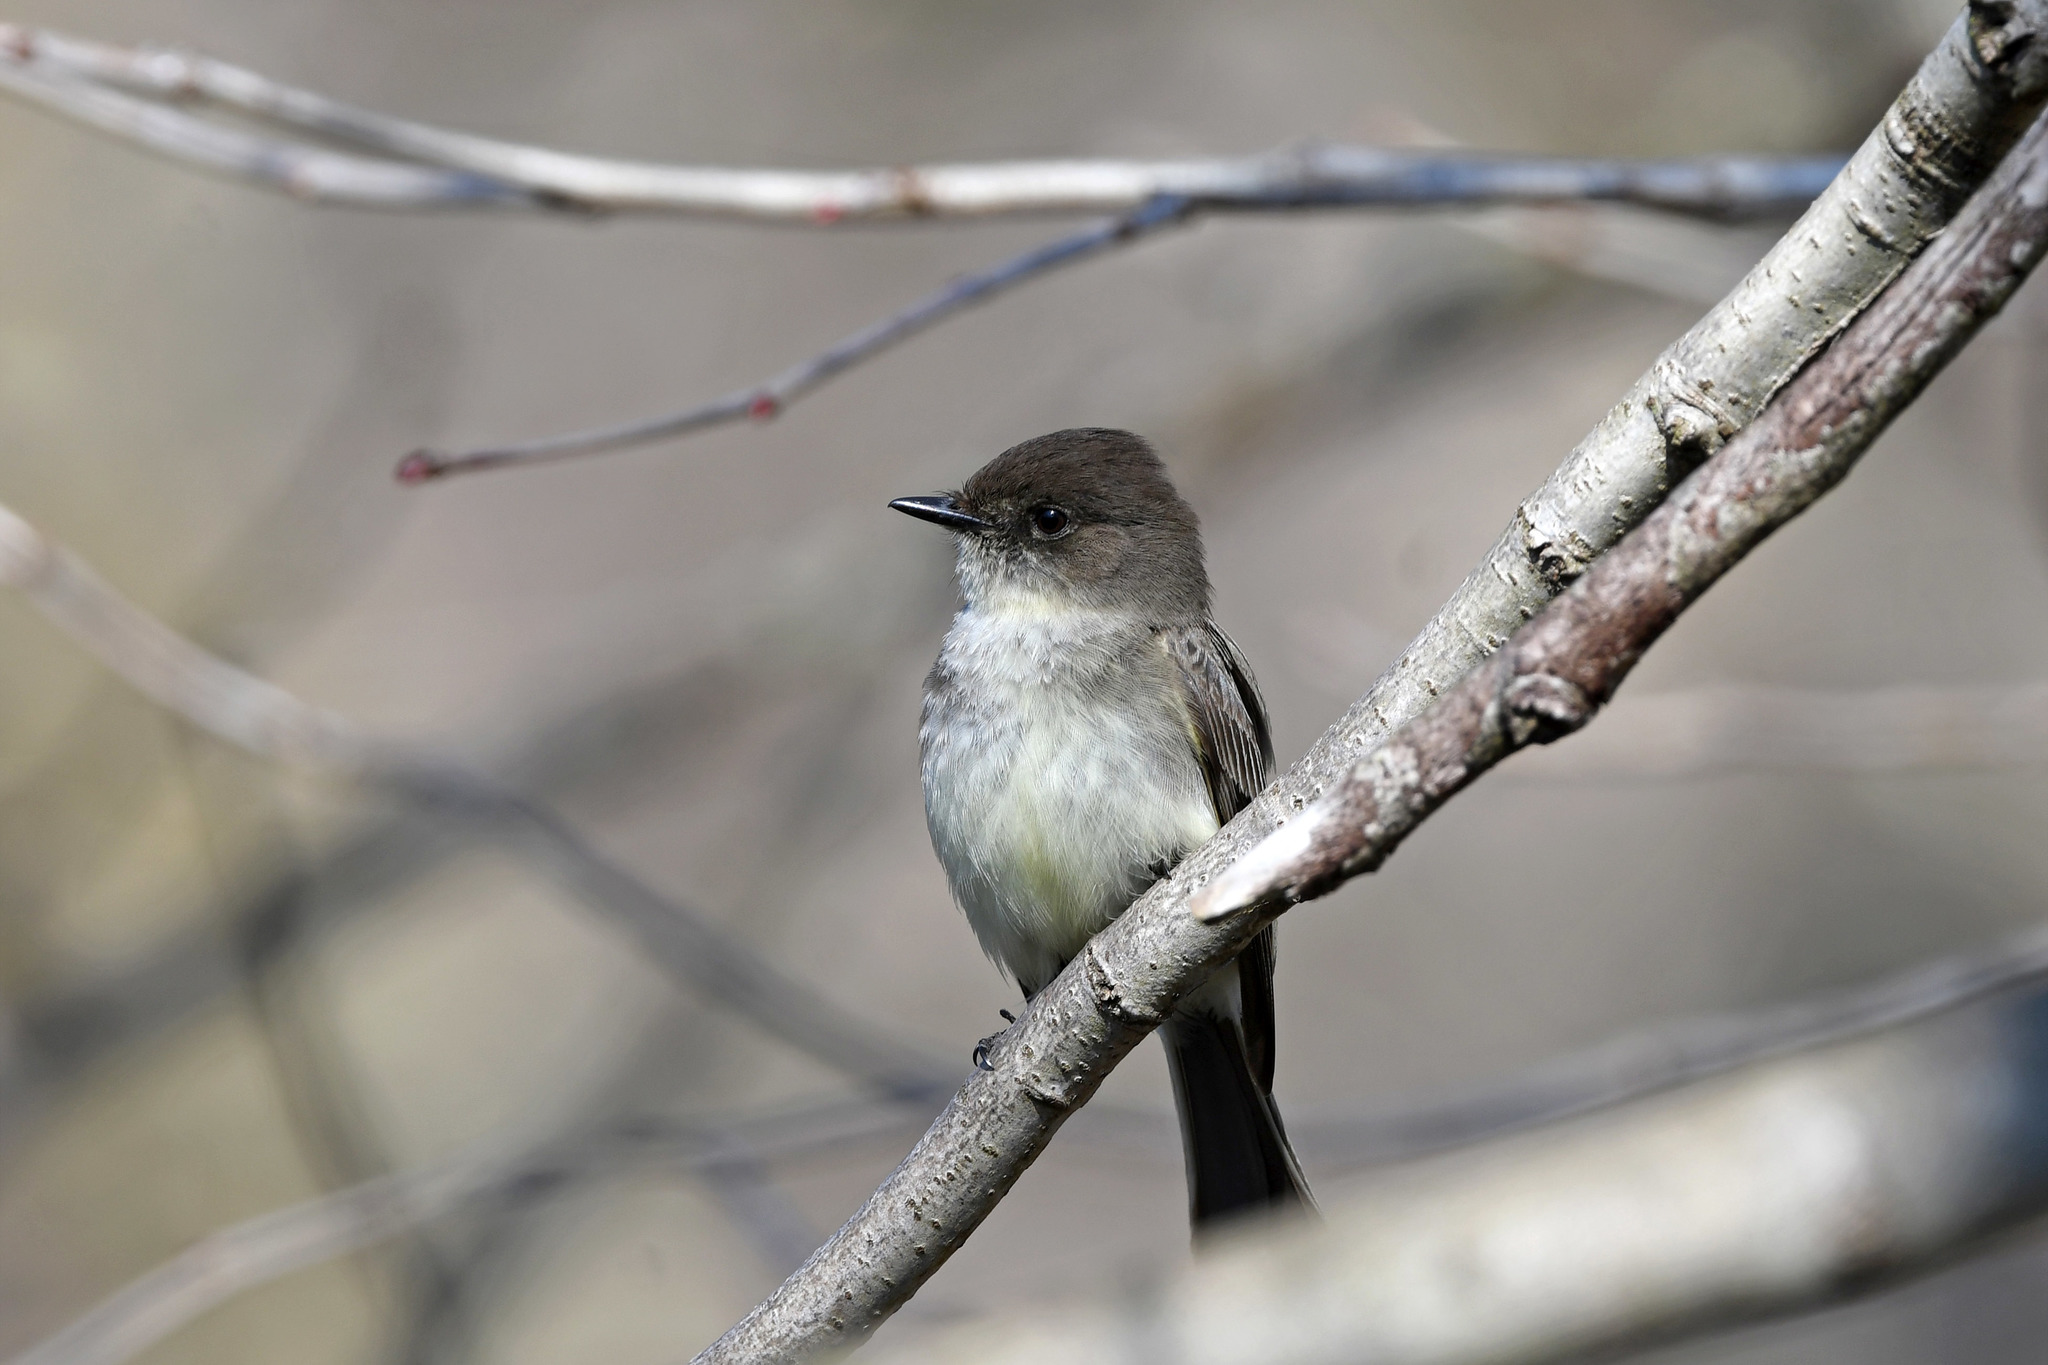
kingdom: Animalia
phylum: Chordata
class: Aves
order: Passeriformes
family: Tyrannidae
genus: Sayornis
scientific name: Sayornis phoebe
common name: Eastern phoebe
